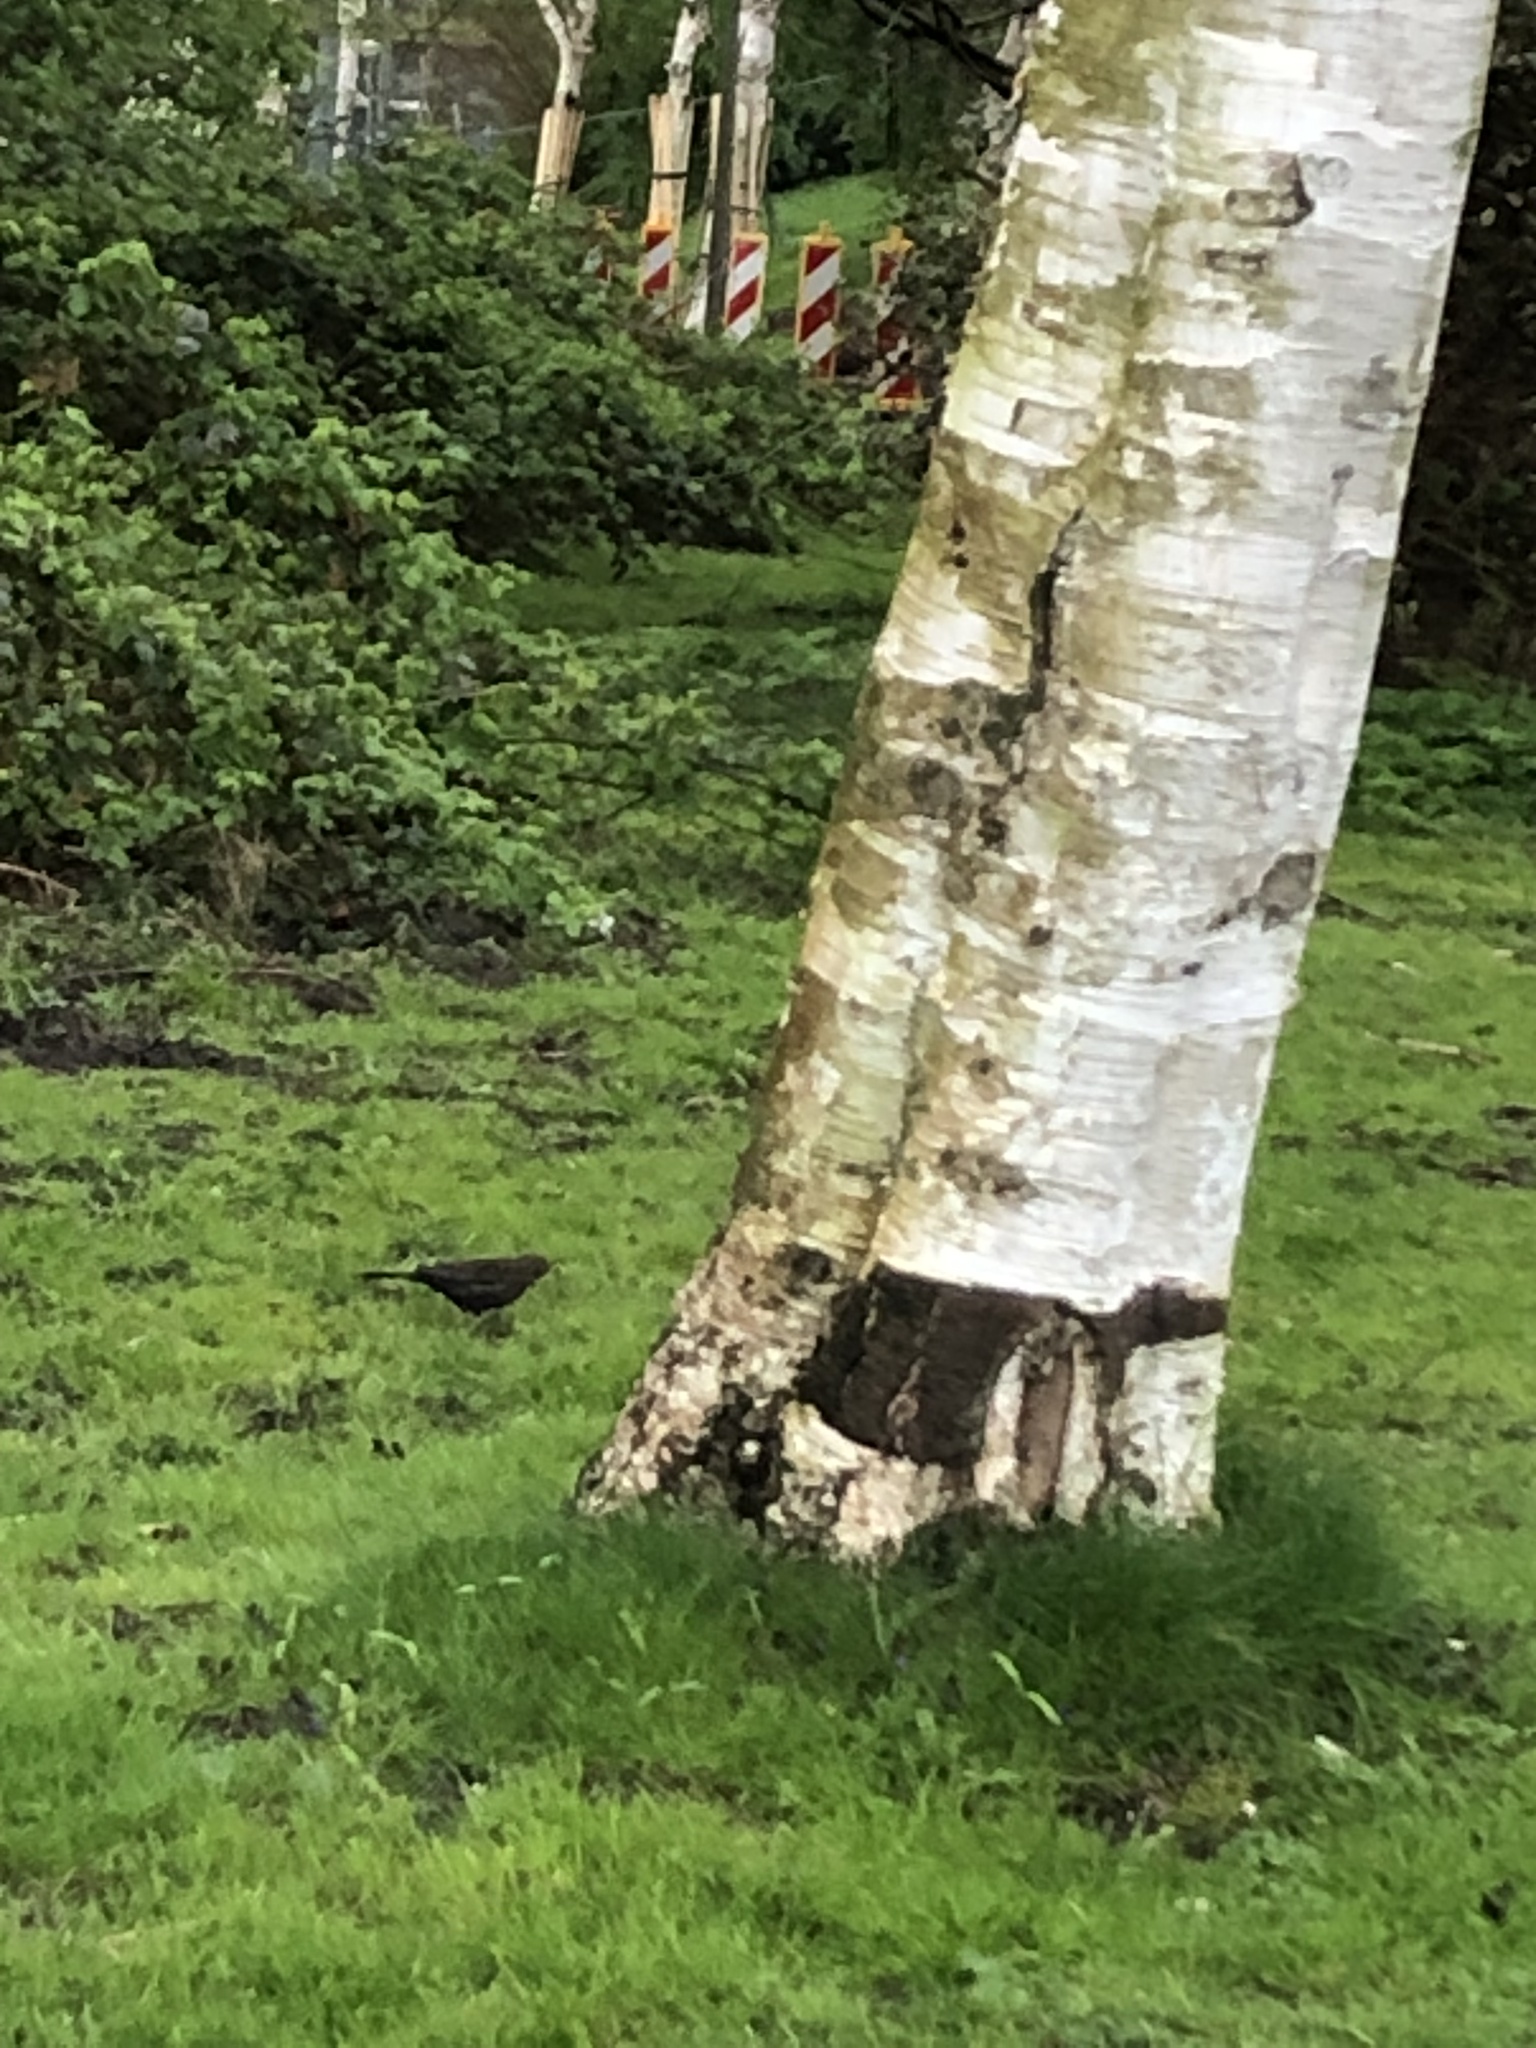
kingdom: Animalia
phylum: Chordata
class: Aves
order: Passeriformes
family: Turdidae
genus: Turdus
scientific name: Turdus merula
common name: Common blackbird
